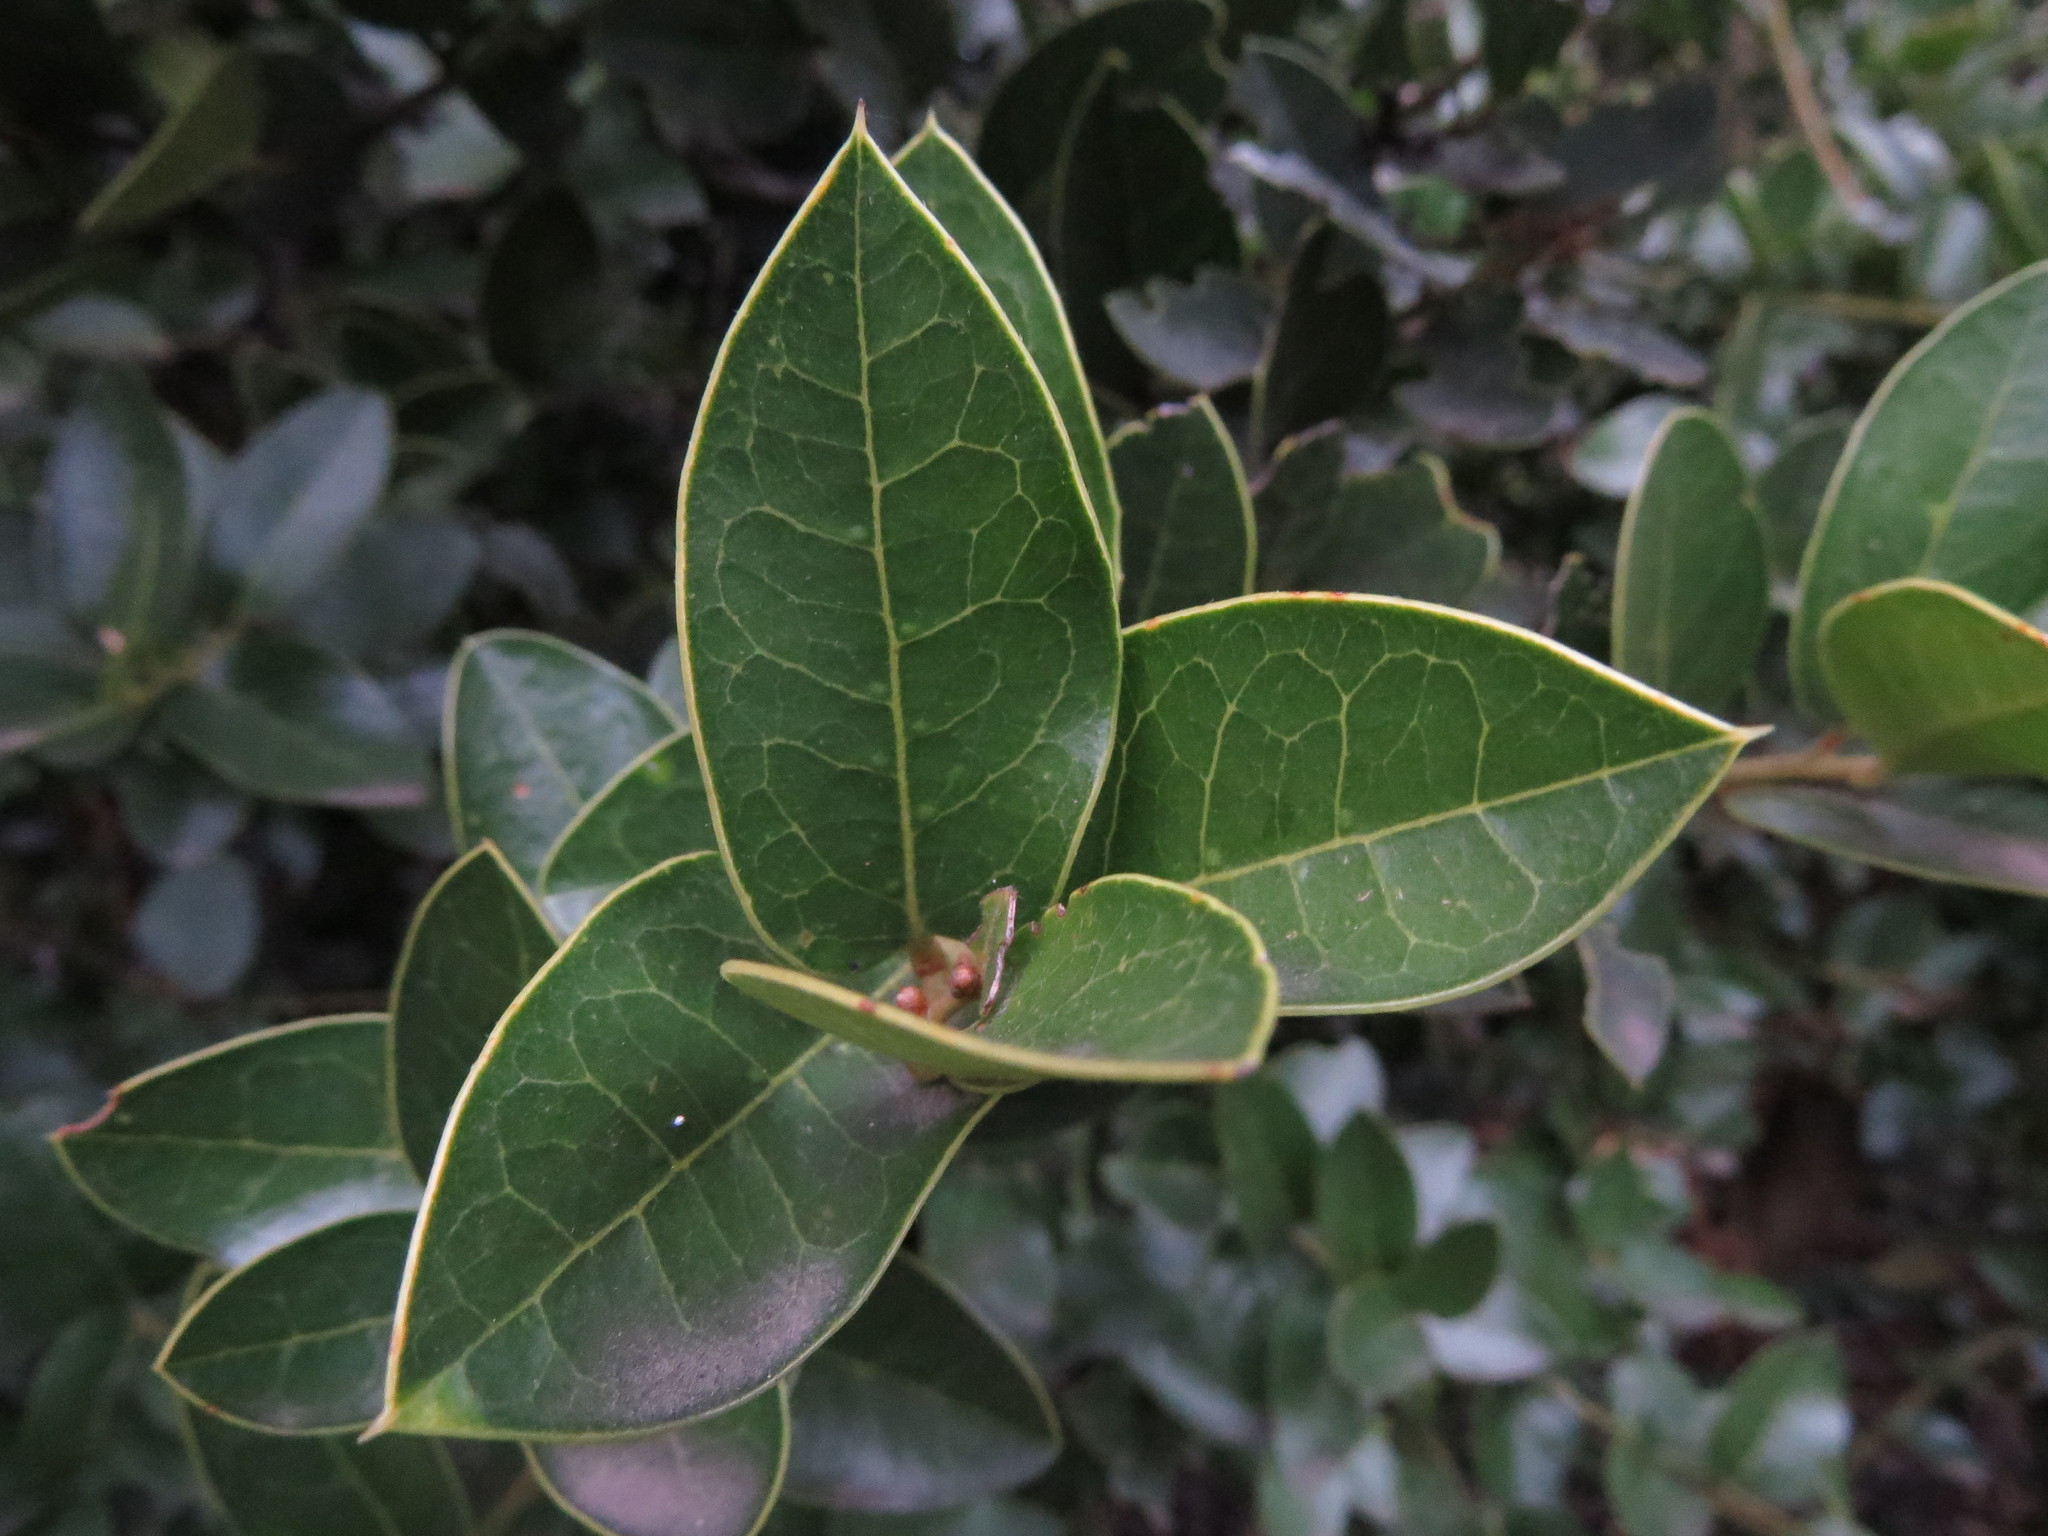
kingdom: Plantae
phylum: Tracheophyta
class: Magnoliopsida
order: Cardiopteridales
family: Cardiopteridaceae
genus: Citronella
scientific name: Citronella mucronata
